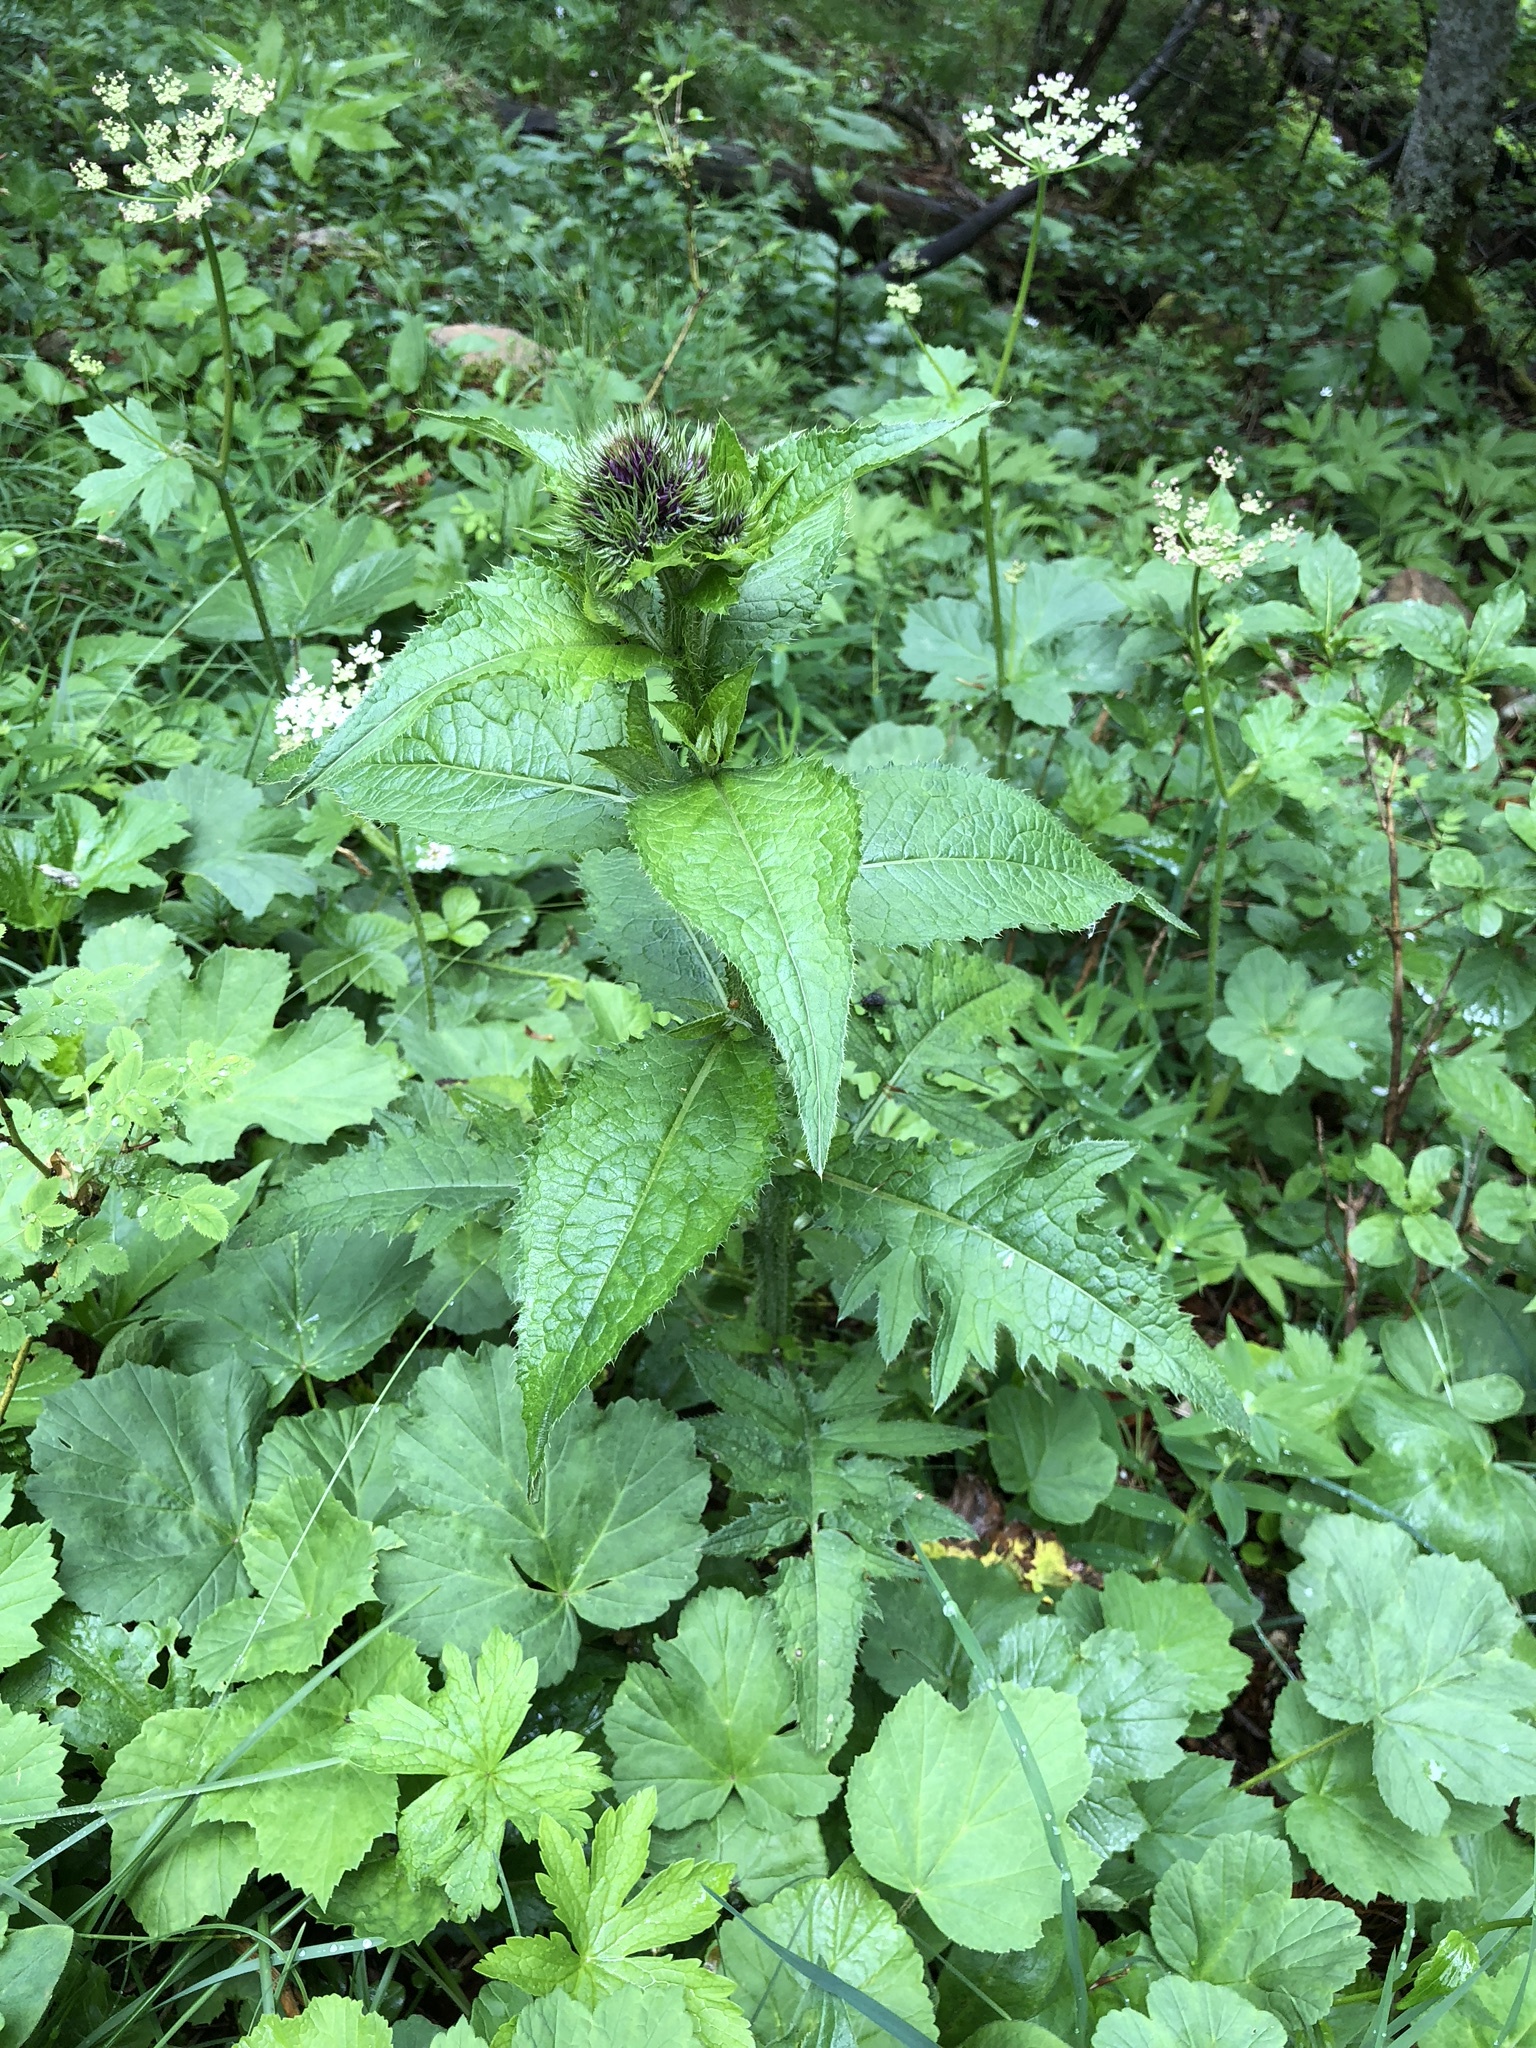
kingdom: Plantae
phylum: Tracheophyta
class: Magnoliopsida
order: Asterales
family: Asteraceae
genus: Carduus
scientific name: Carduus personata
